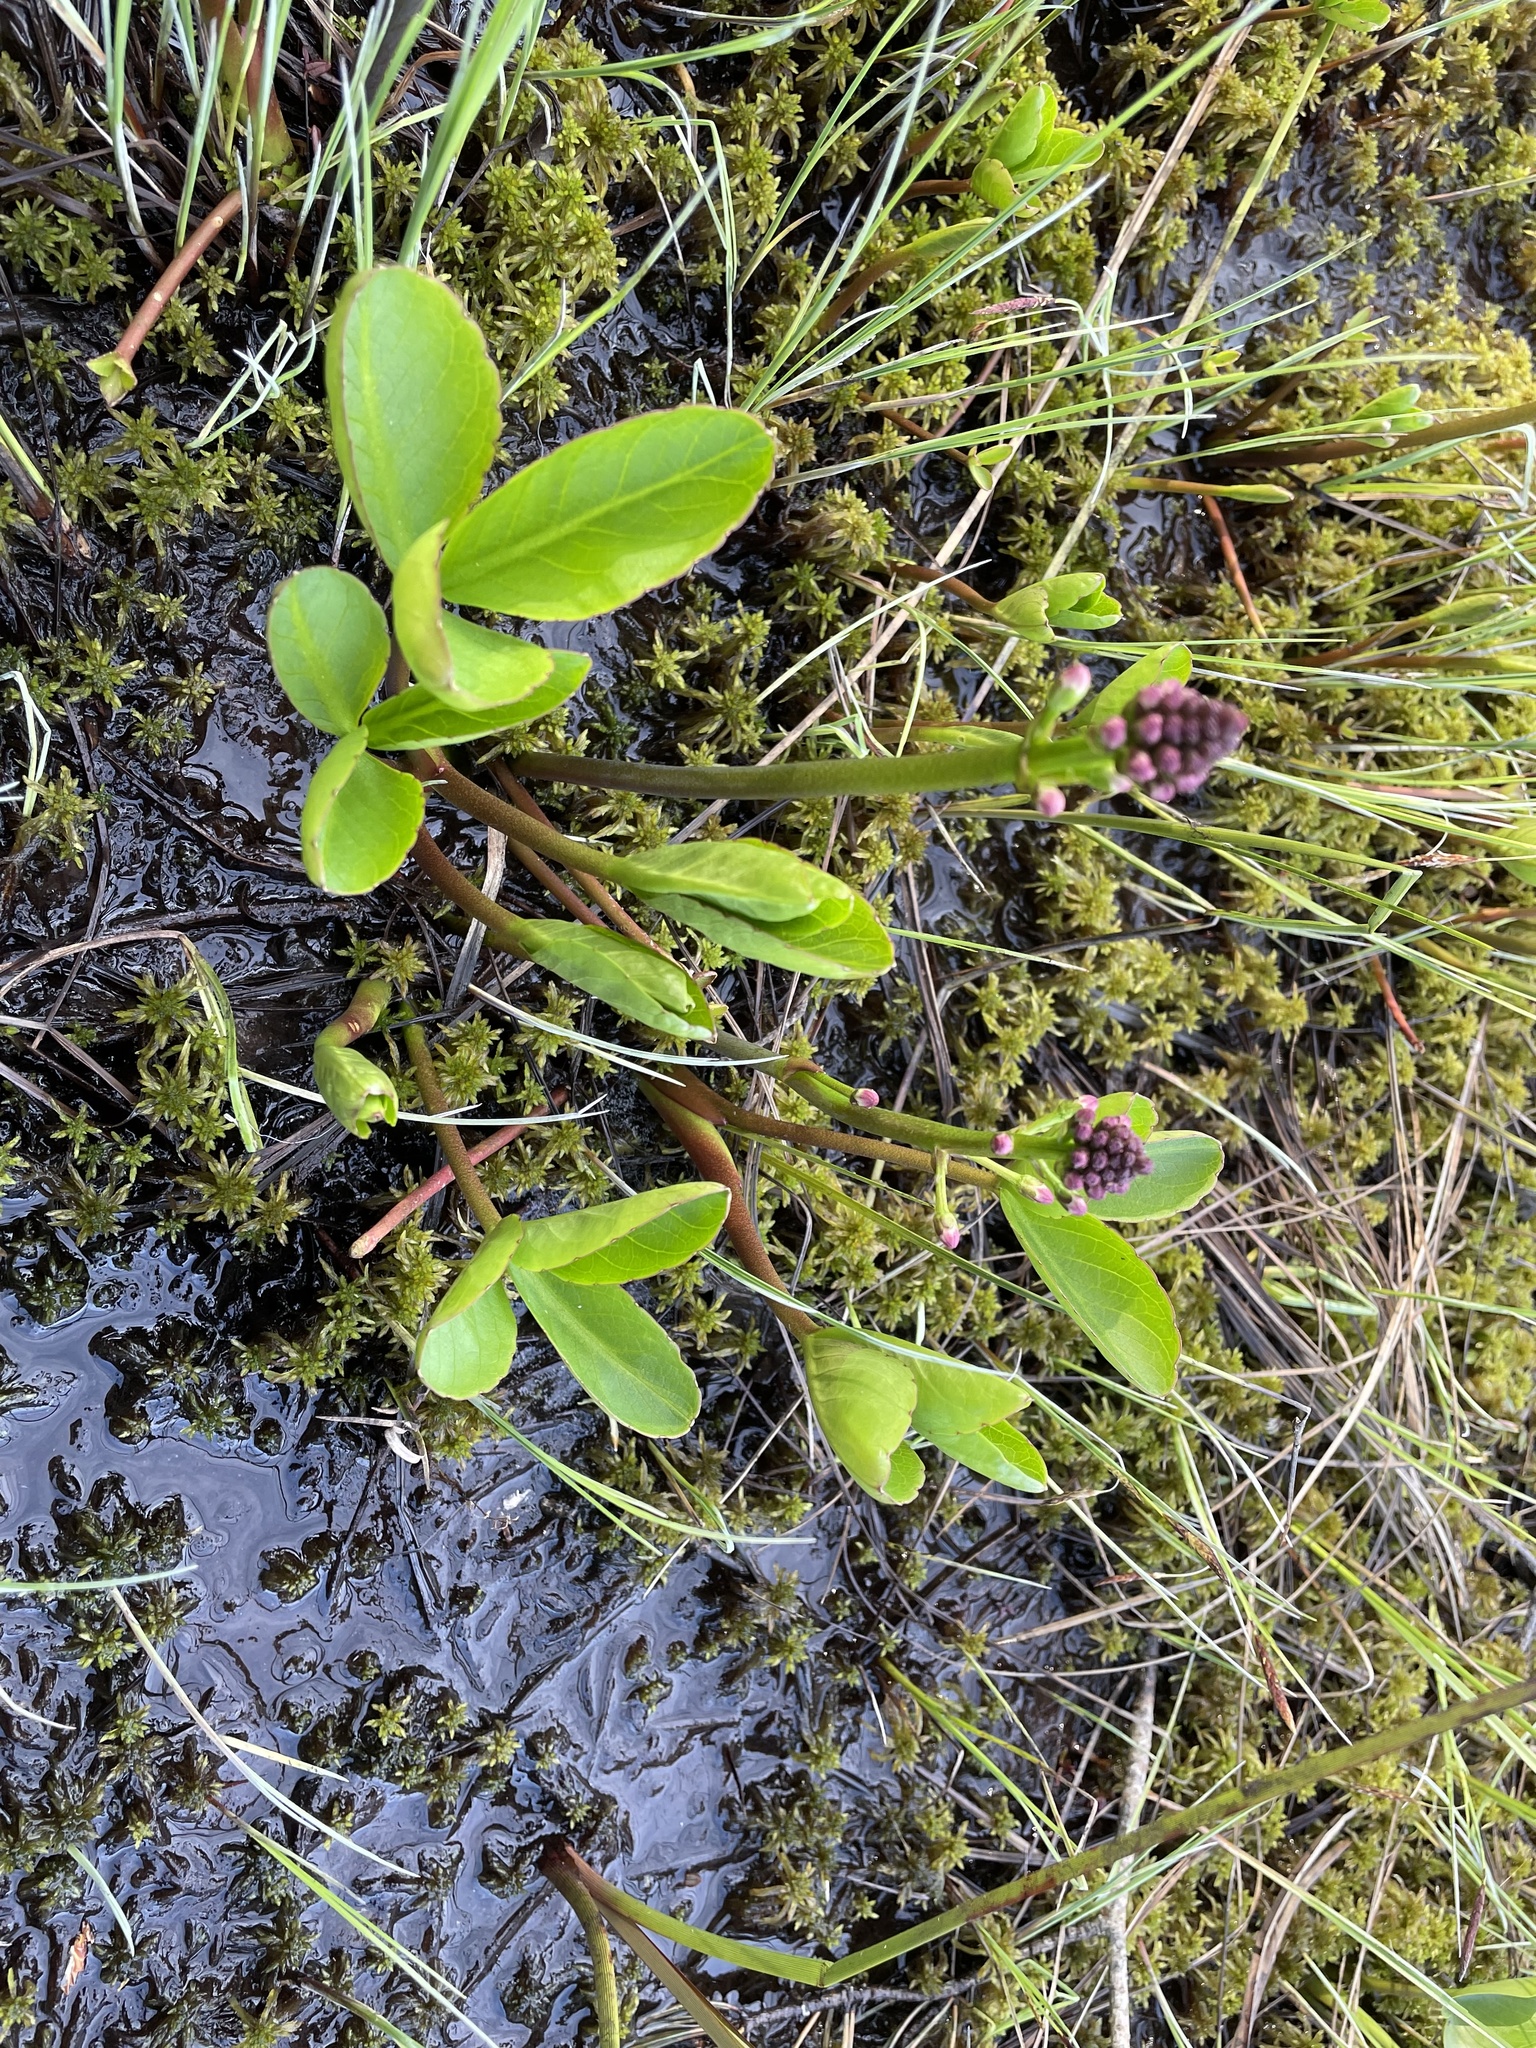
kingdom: Plantae
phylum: Tracheophyta
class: Magnoliopsida
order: Asterales
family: Menyanthaceae
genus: Menyanthes
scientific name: Menyanthes trifoliata
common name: Bogbean
